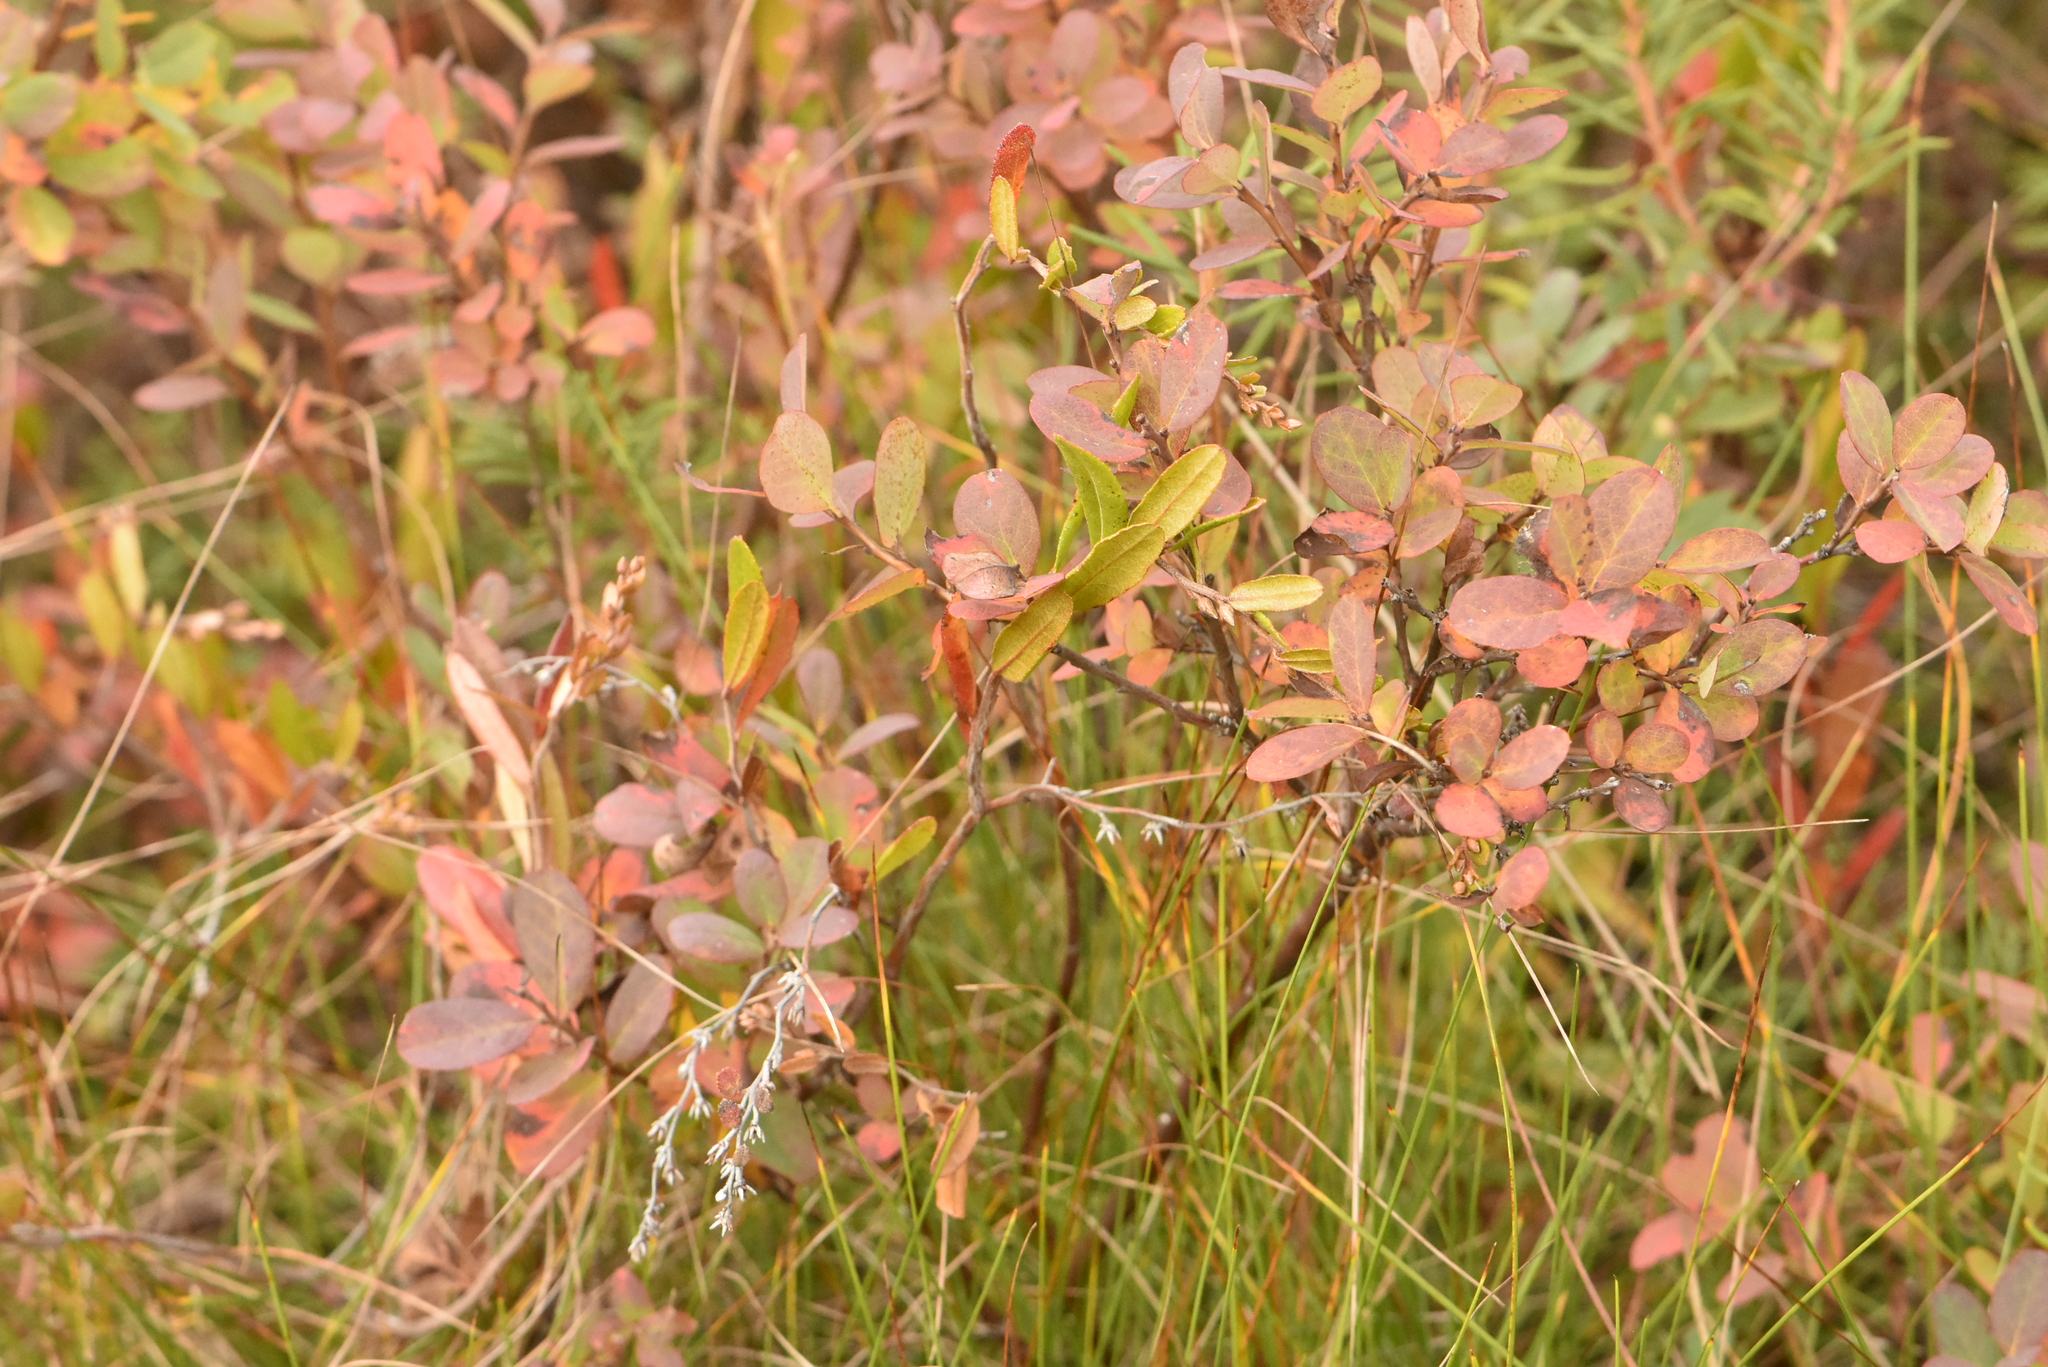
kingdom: Plantae
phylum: Tracheophyta
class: Magnoliopsida
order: Ericales
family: Ericaceae
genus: Vaccinium
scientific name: Vaccinium uliginosum
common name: Bog bilberry
